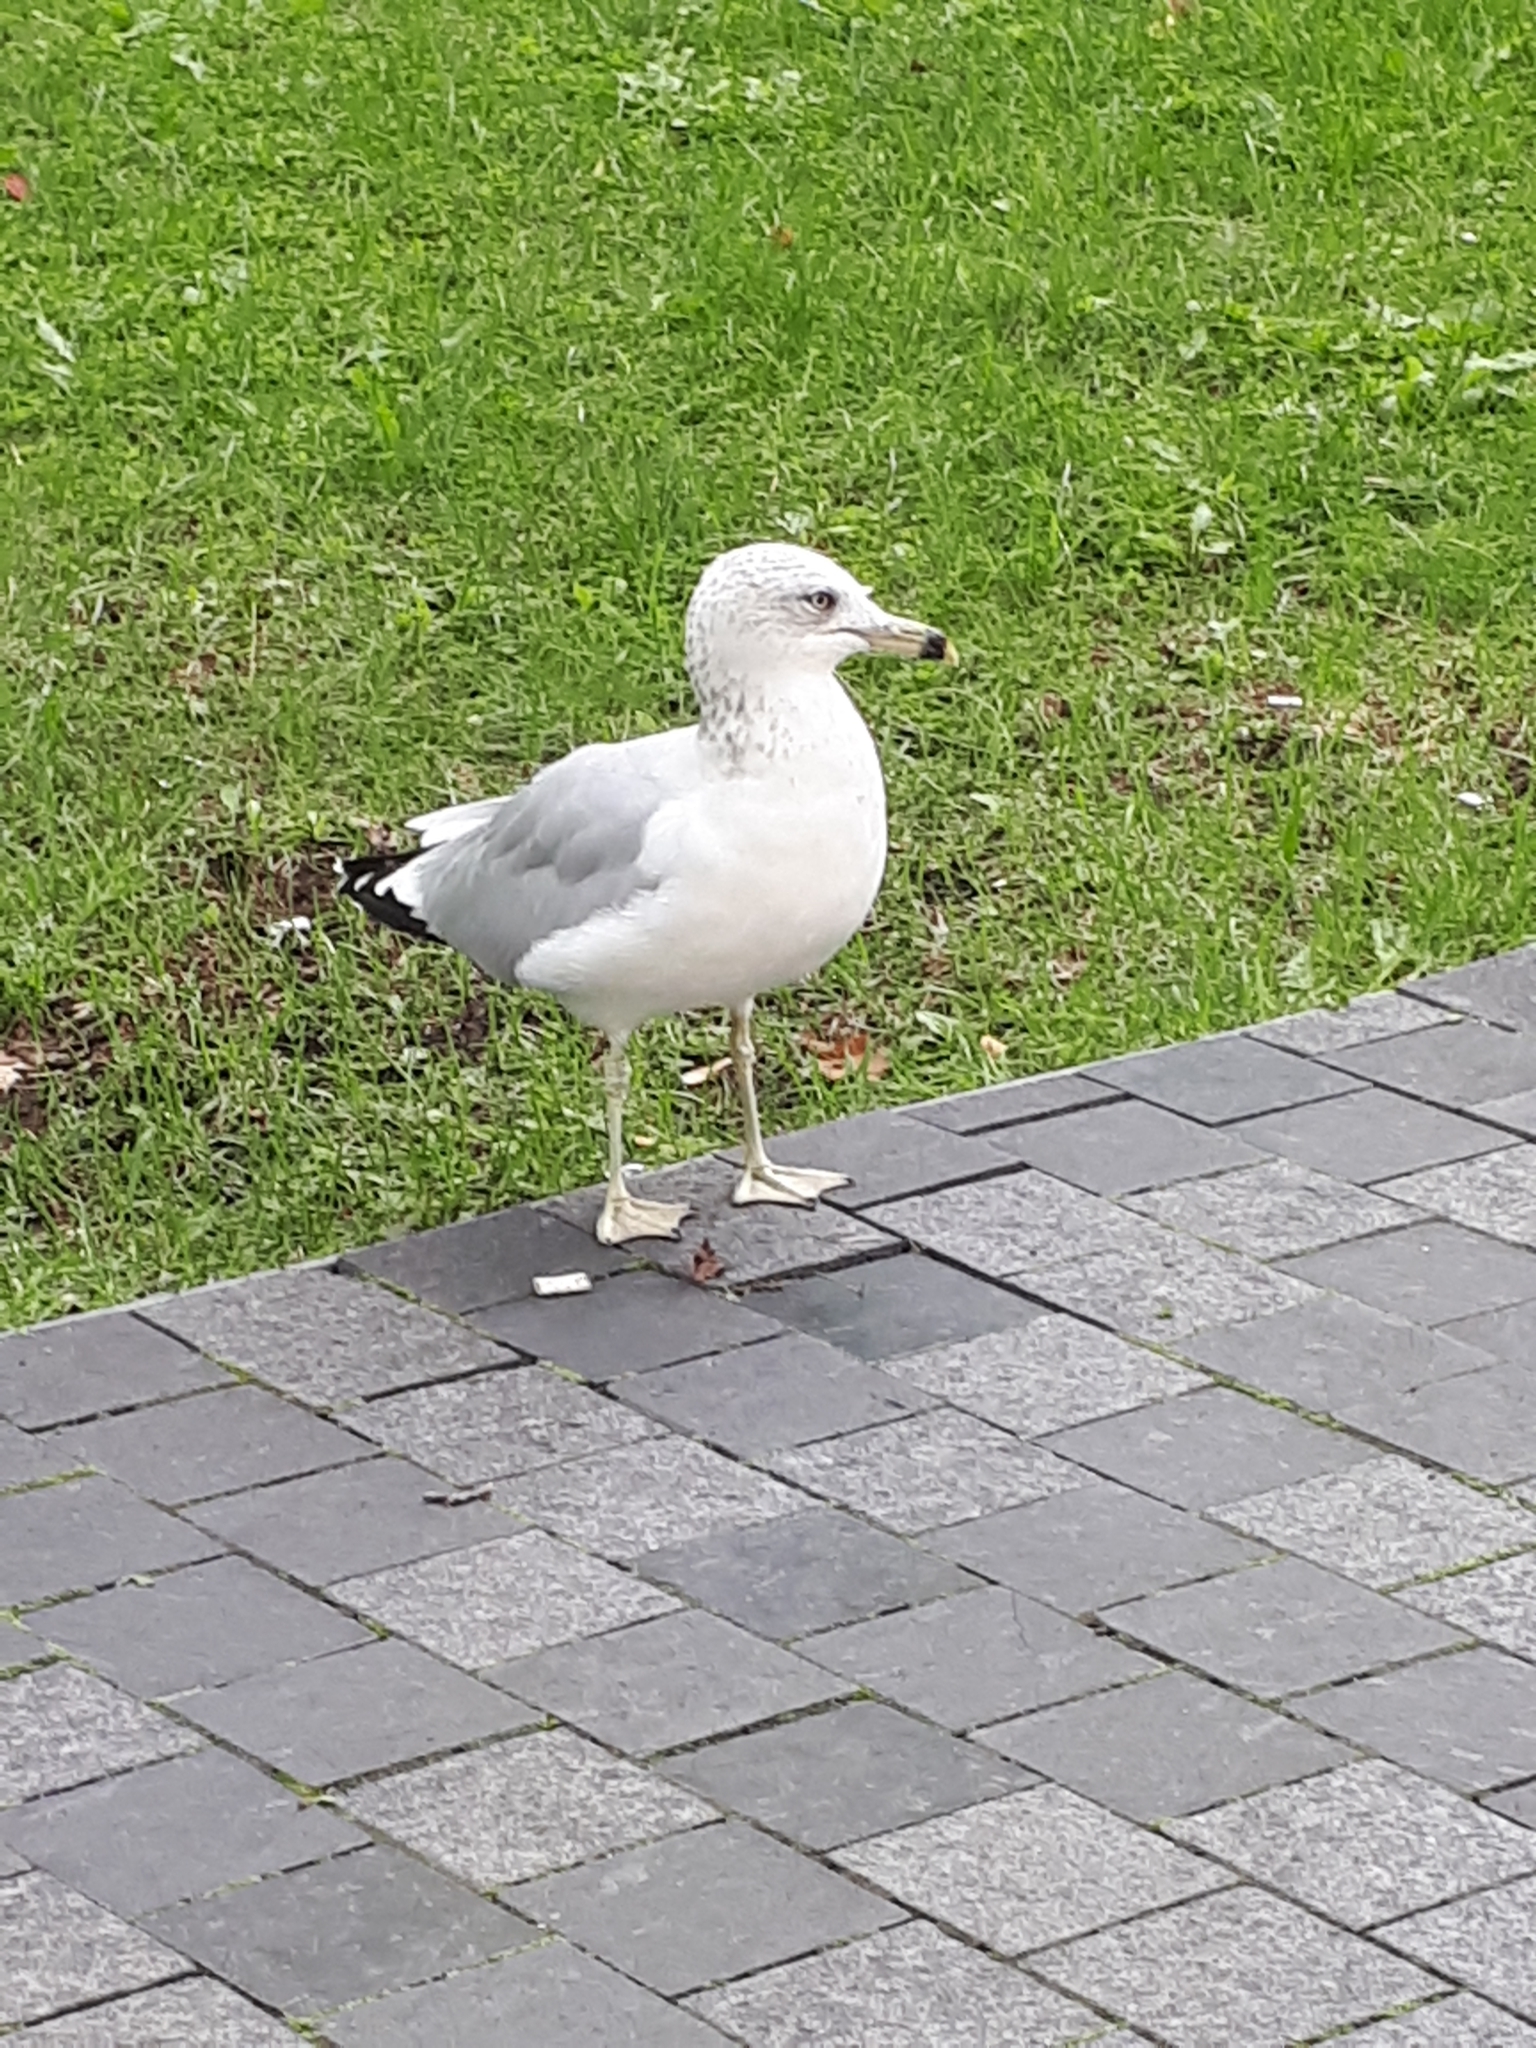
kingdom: Animalia
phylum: Chordata
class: Aves
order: Charadriiformes
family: Laridae
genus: Larus
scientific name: Larus delawarensis
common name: Ring-billed gull
